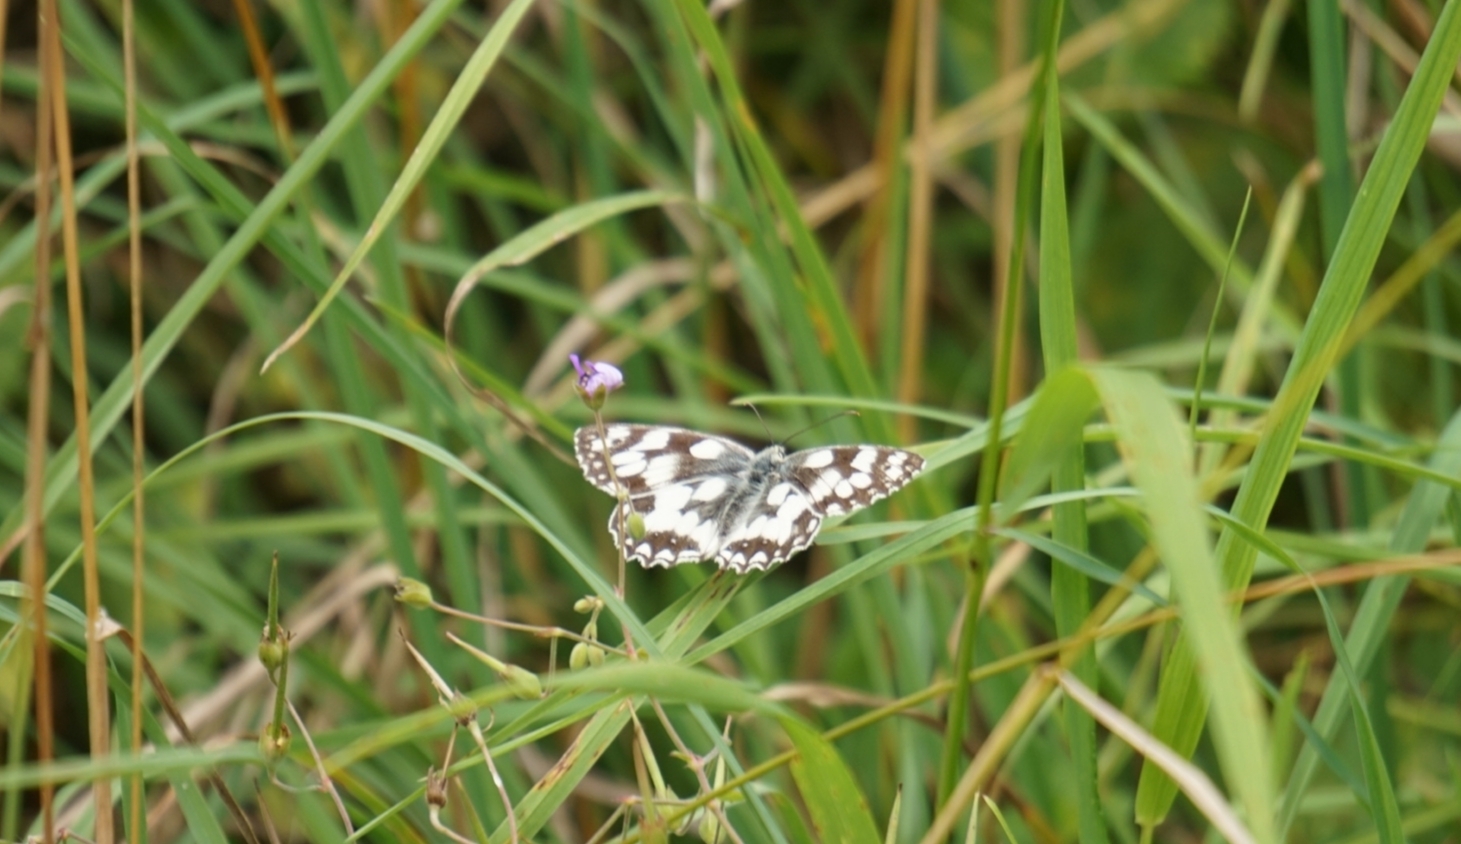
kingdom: Animalia
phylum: Arthropoda
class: Insecta
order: Lepidoptera
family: Nymphalidae
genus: Melanargia
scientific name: Melanargia galathea
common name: Marbled white
